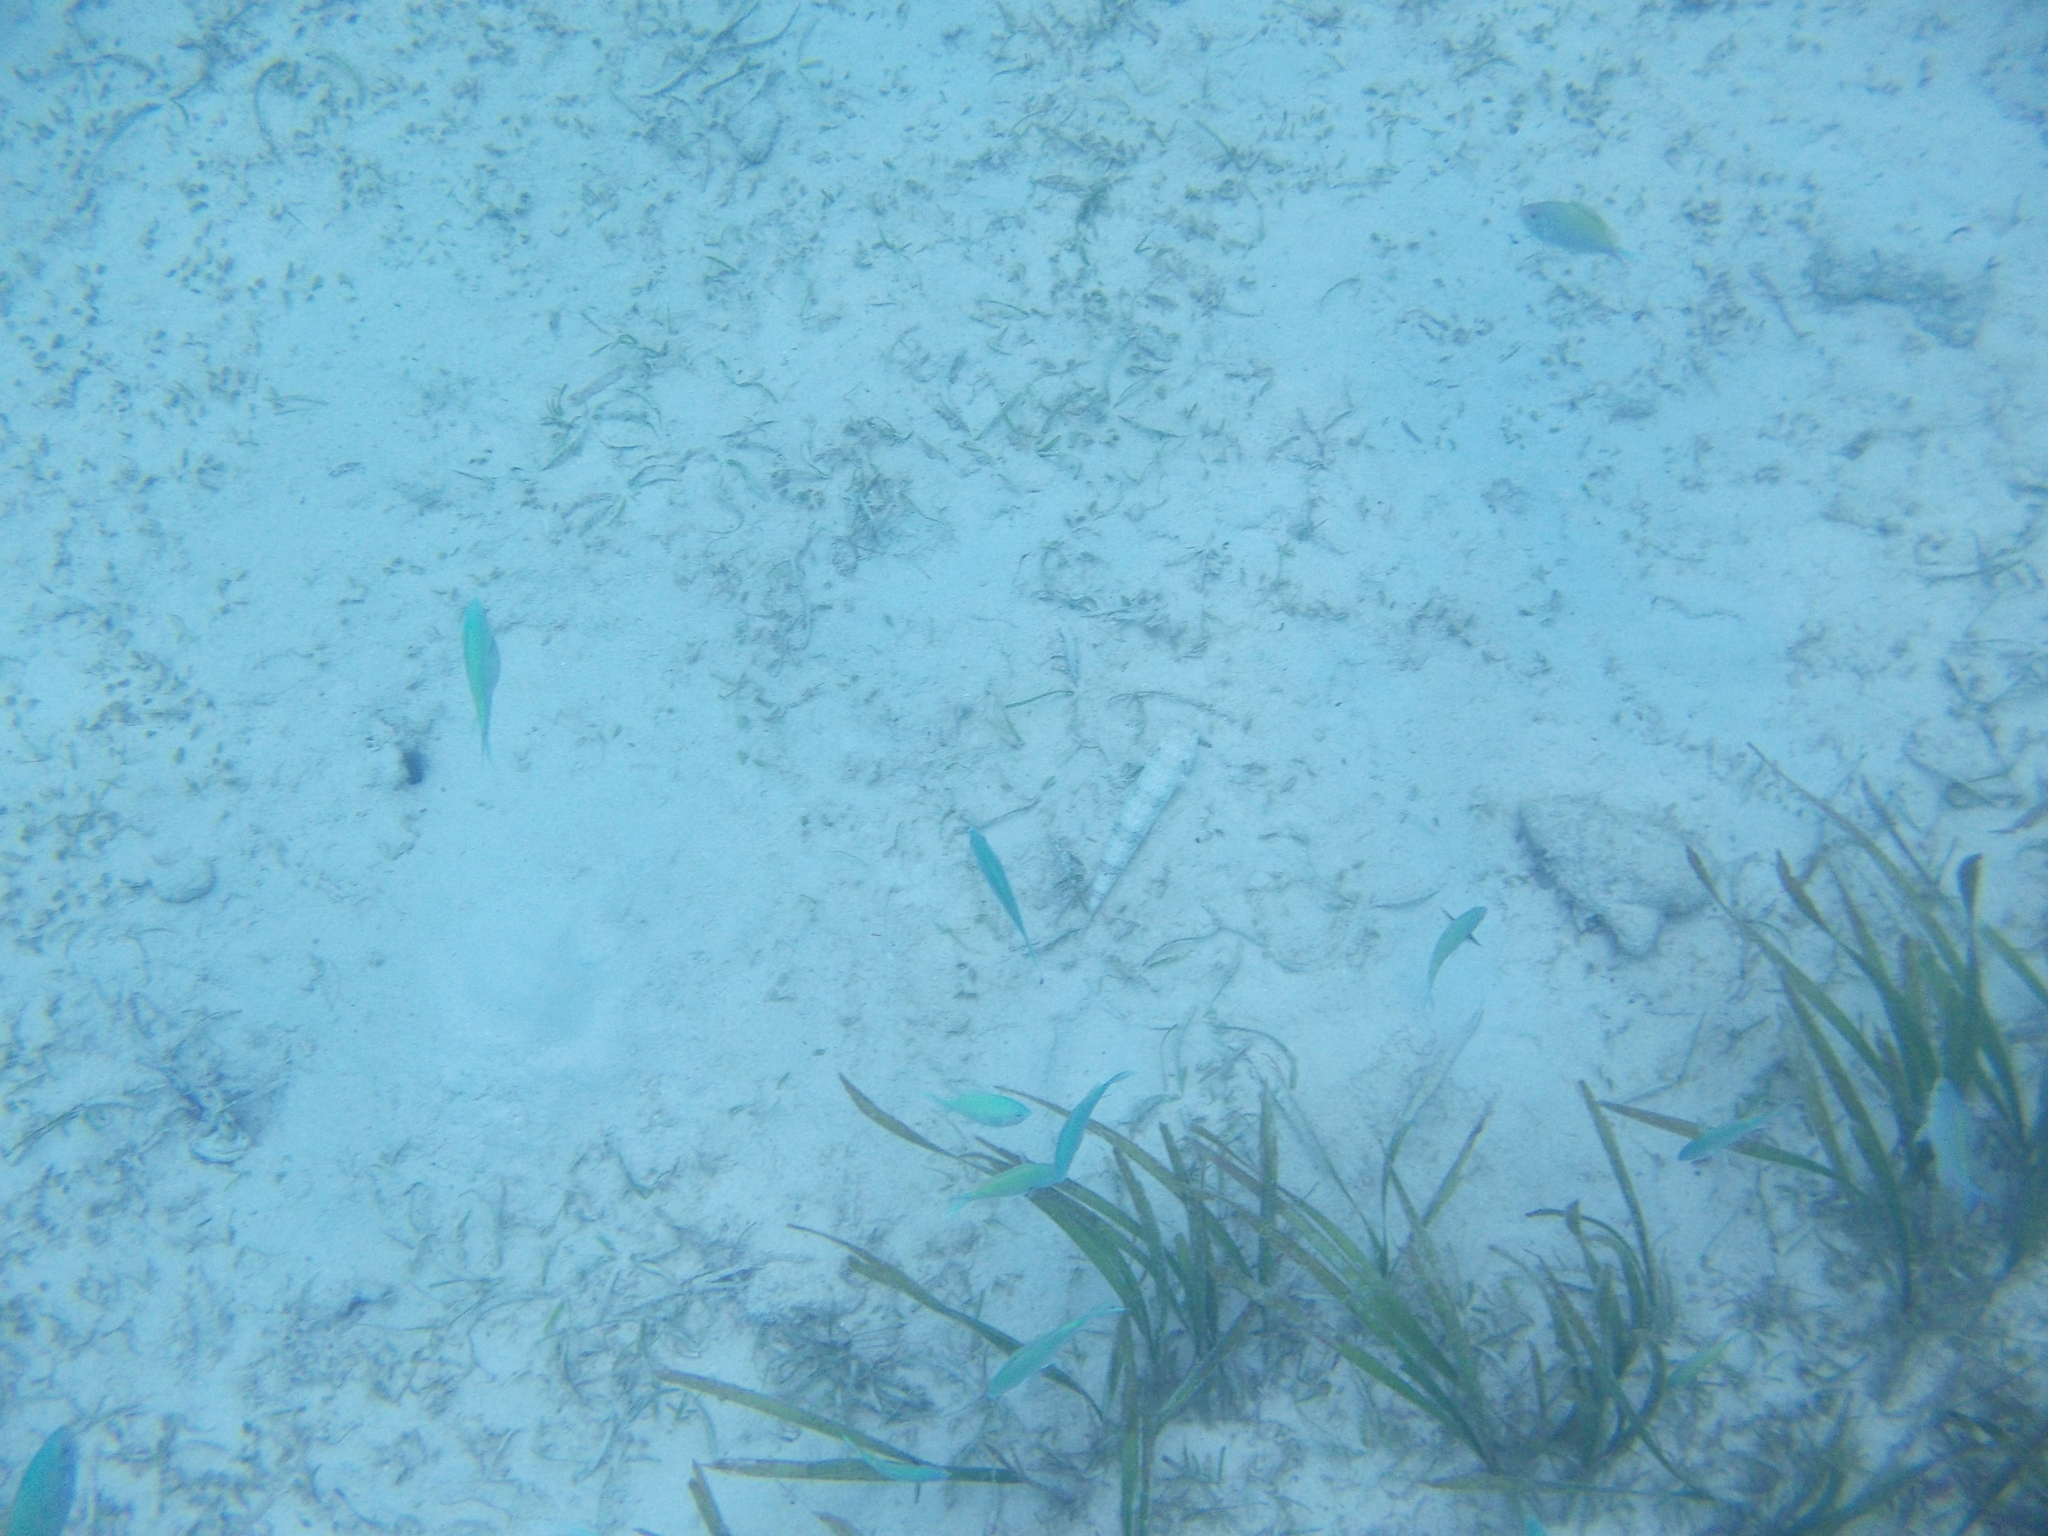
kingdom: Animalia
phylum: Chordata
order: Perciformes
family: Pomacentridae
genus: Chromis
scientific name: Chromis viridis
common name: Blue-green chromis
